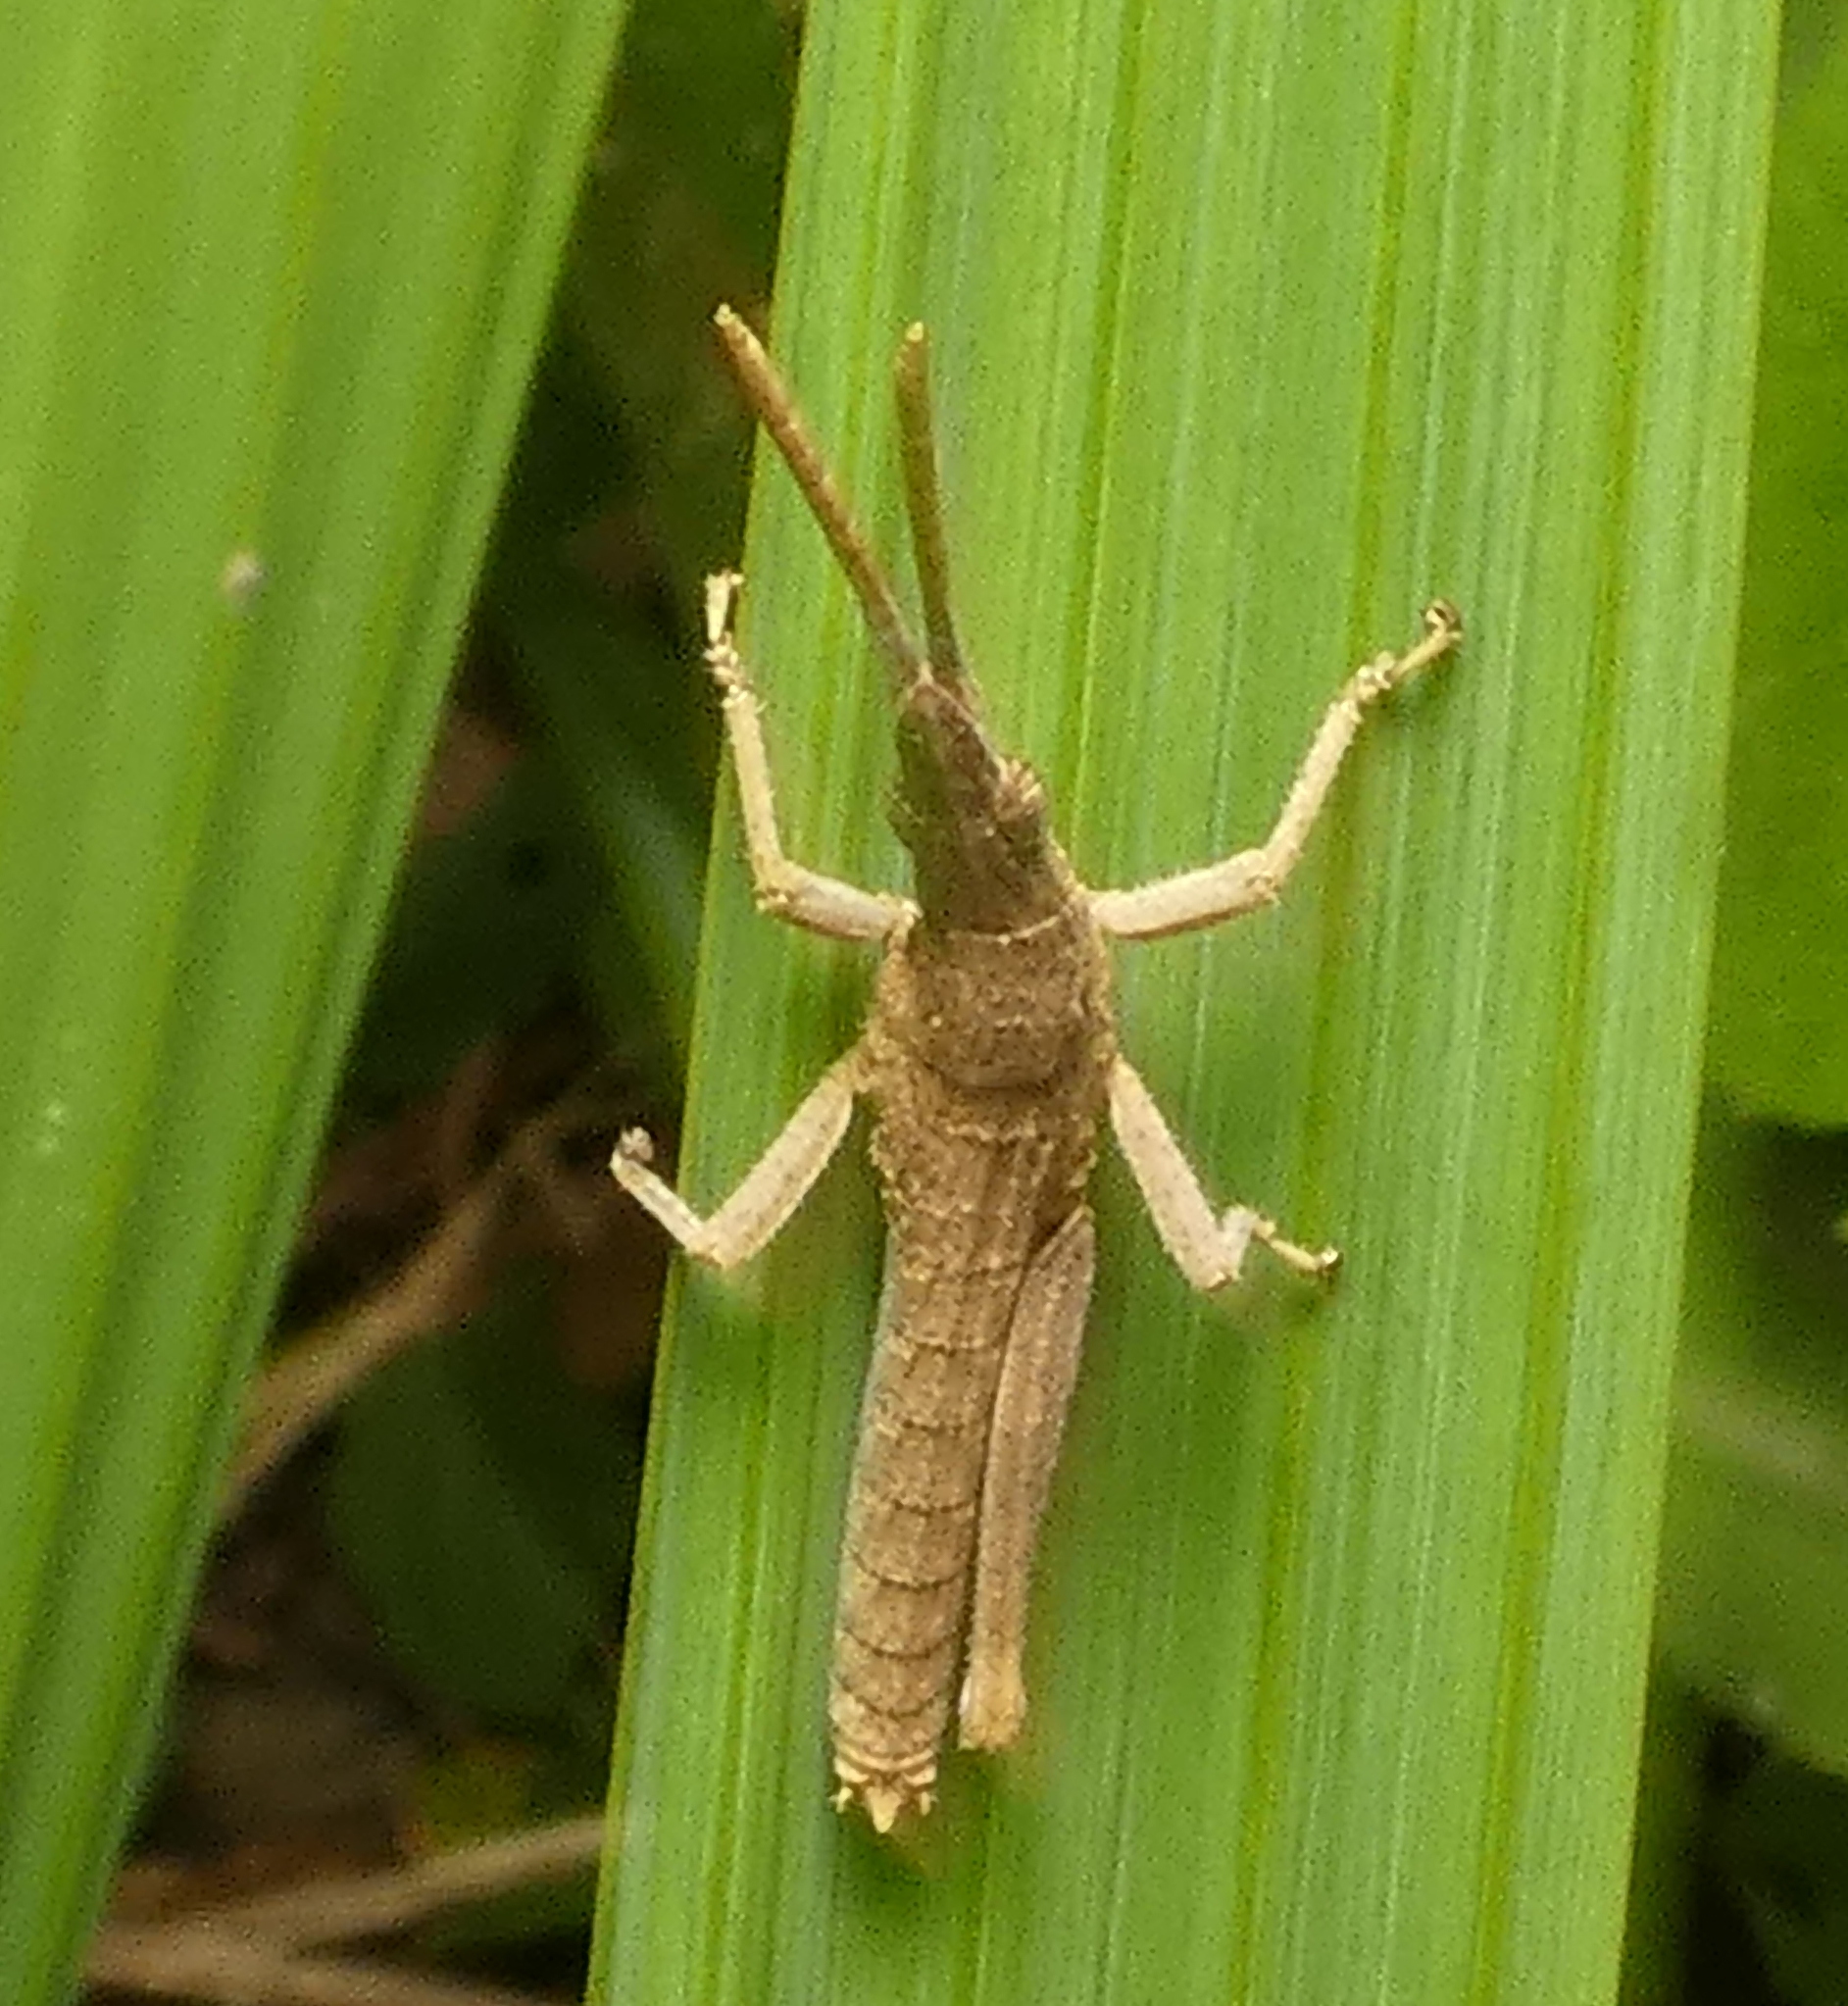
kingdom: Animalia
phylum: Arthropoda
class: Insecta
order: Orthoptera
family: Pyrgomorphidae
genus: Algete
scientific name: Algete brunneri
